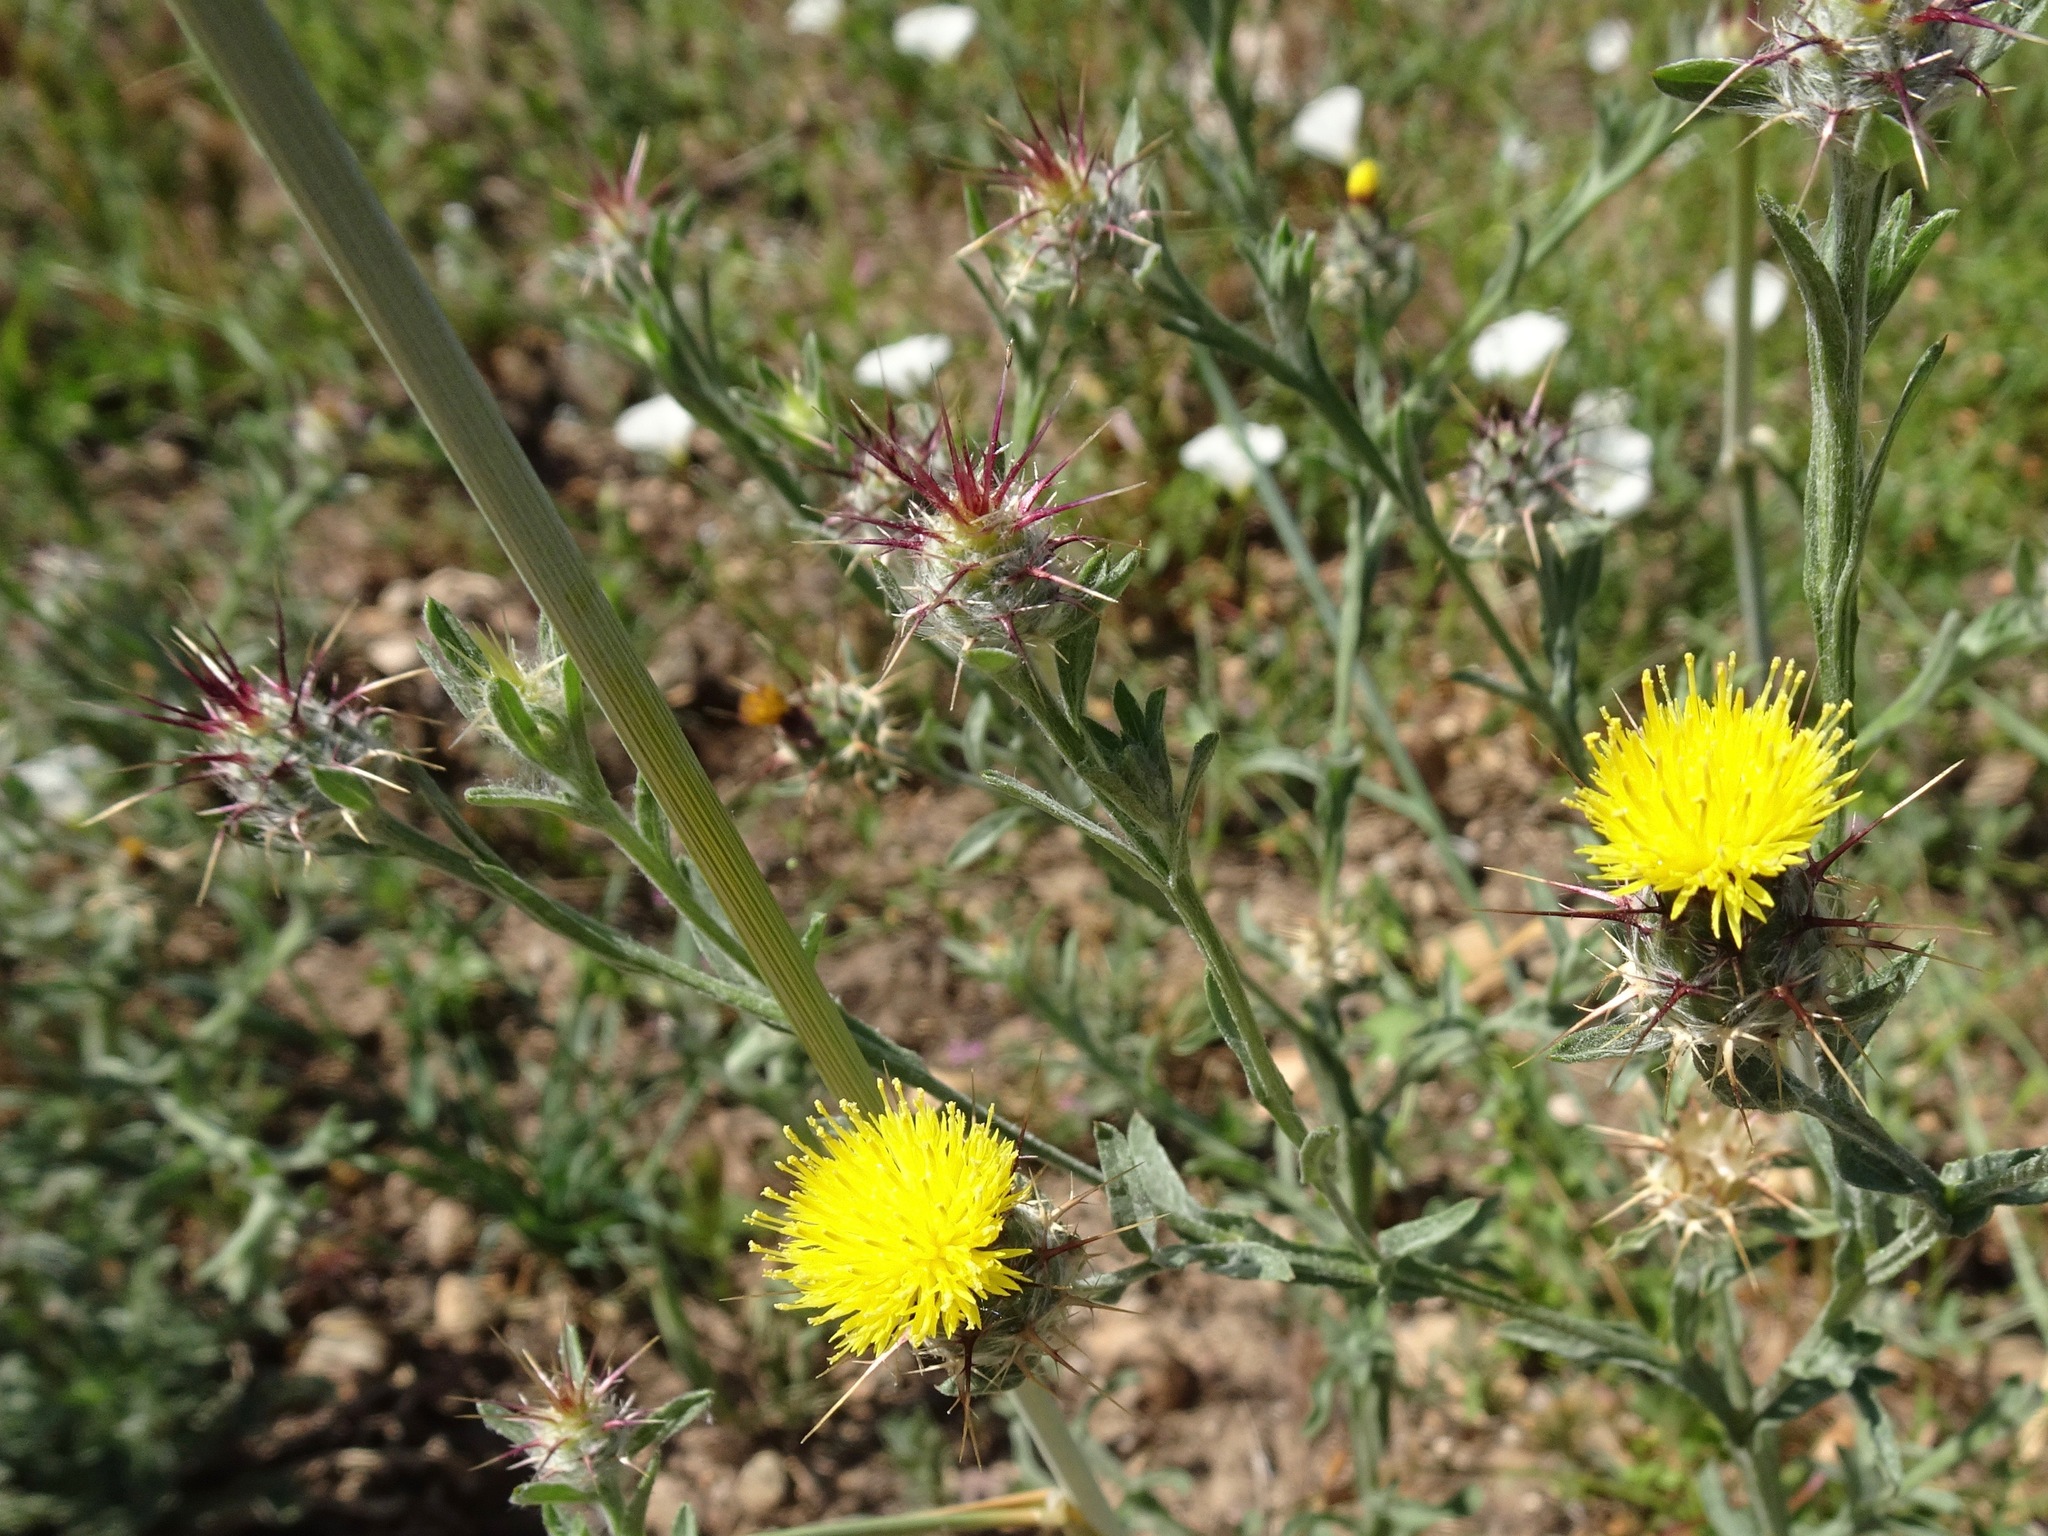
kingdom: Plantae
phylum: Tracheophyta
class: Magnoliopsida
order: Asterales
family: Asteraceae
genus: Centaurea
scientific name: Centaurea melitensis
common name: Maltese star-thistle
